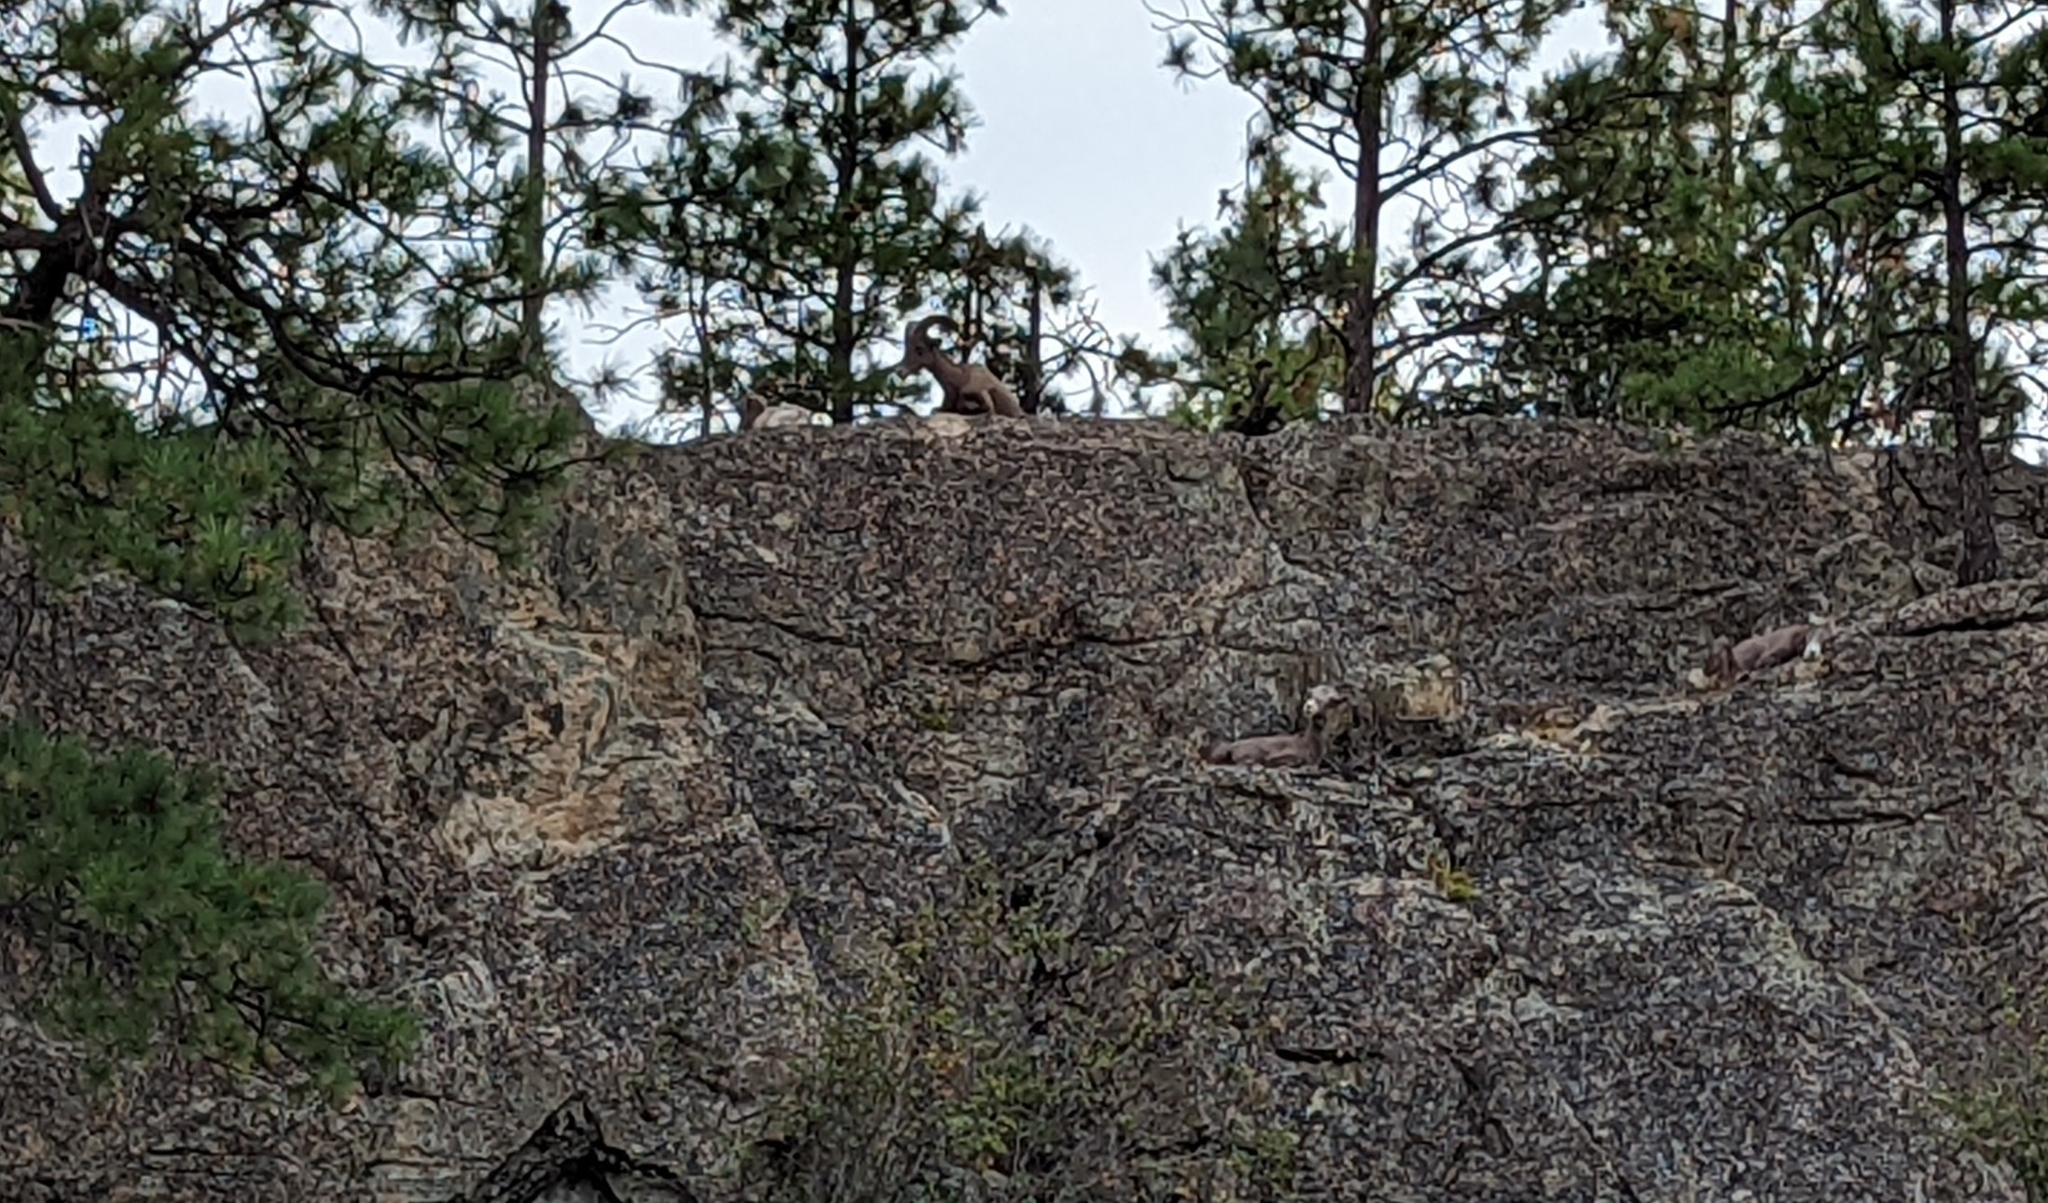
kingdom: Animalia
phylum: Chordata
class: Mammalia
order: Artiodactyla
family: Bovidae
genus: Ovis
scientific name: Ovis canadensis
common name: Bighorn sheep
